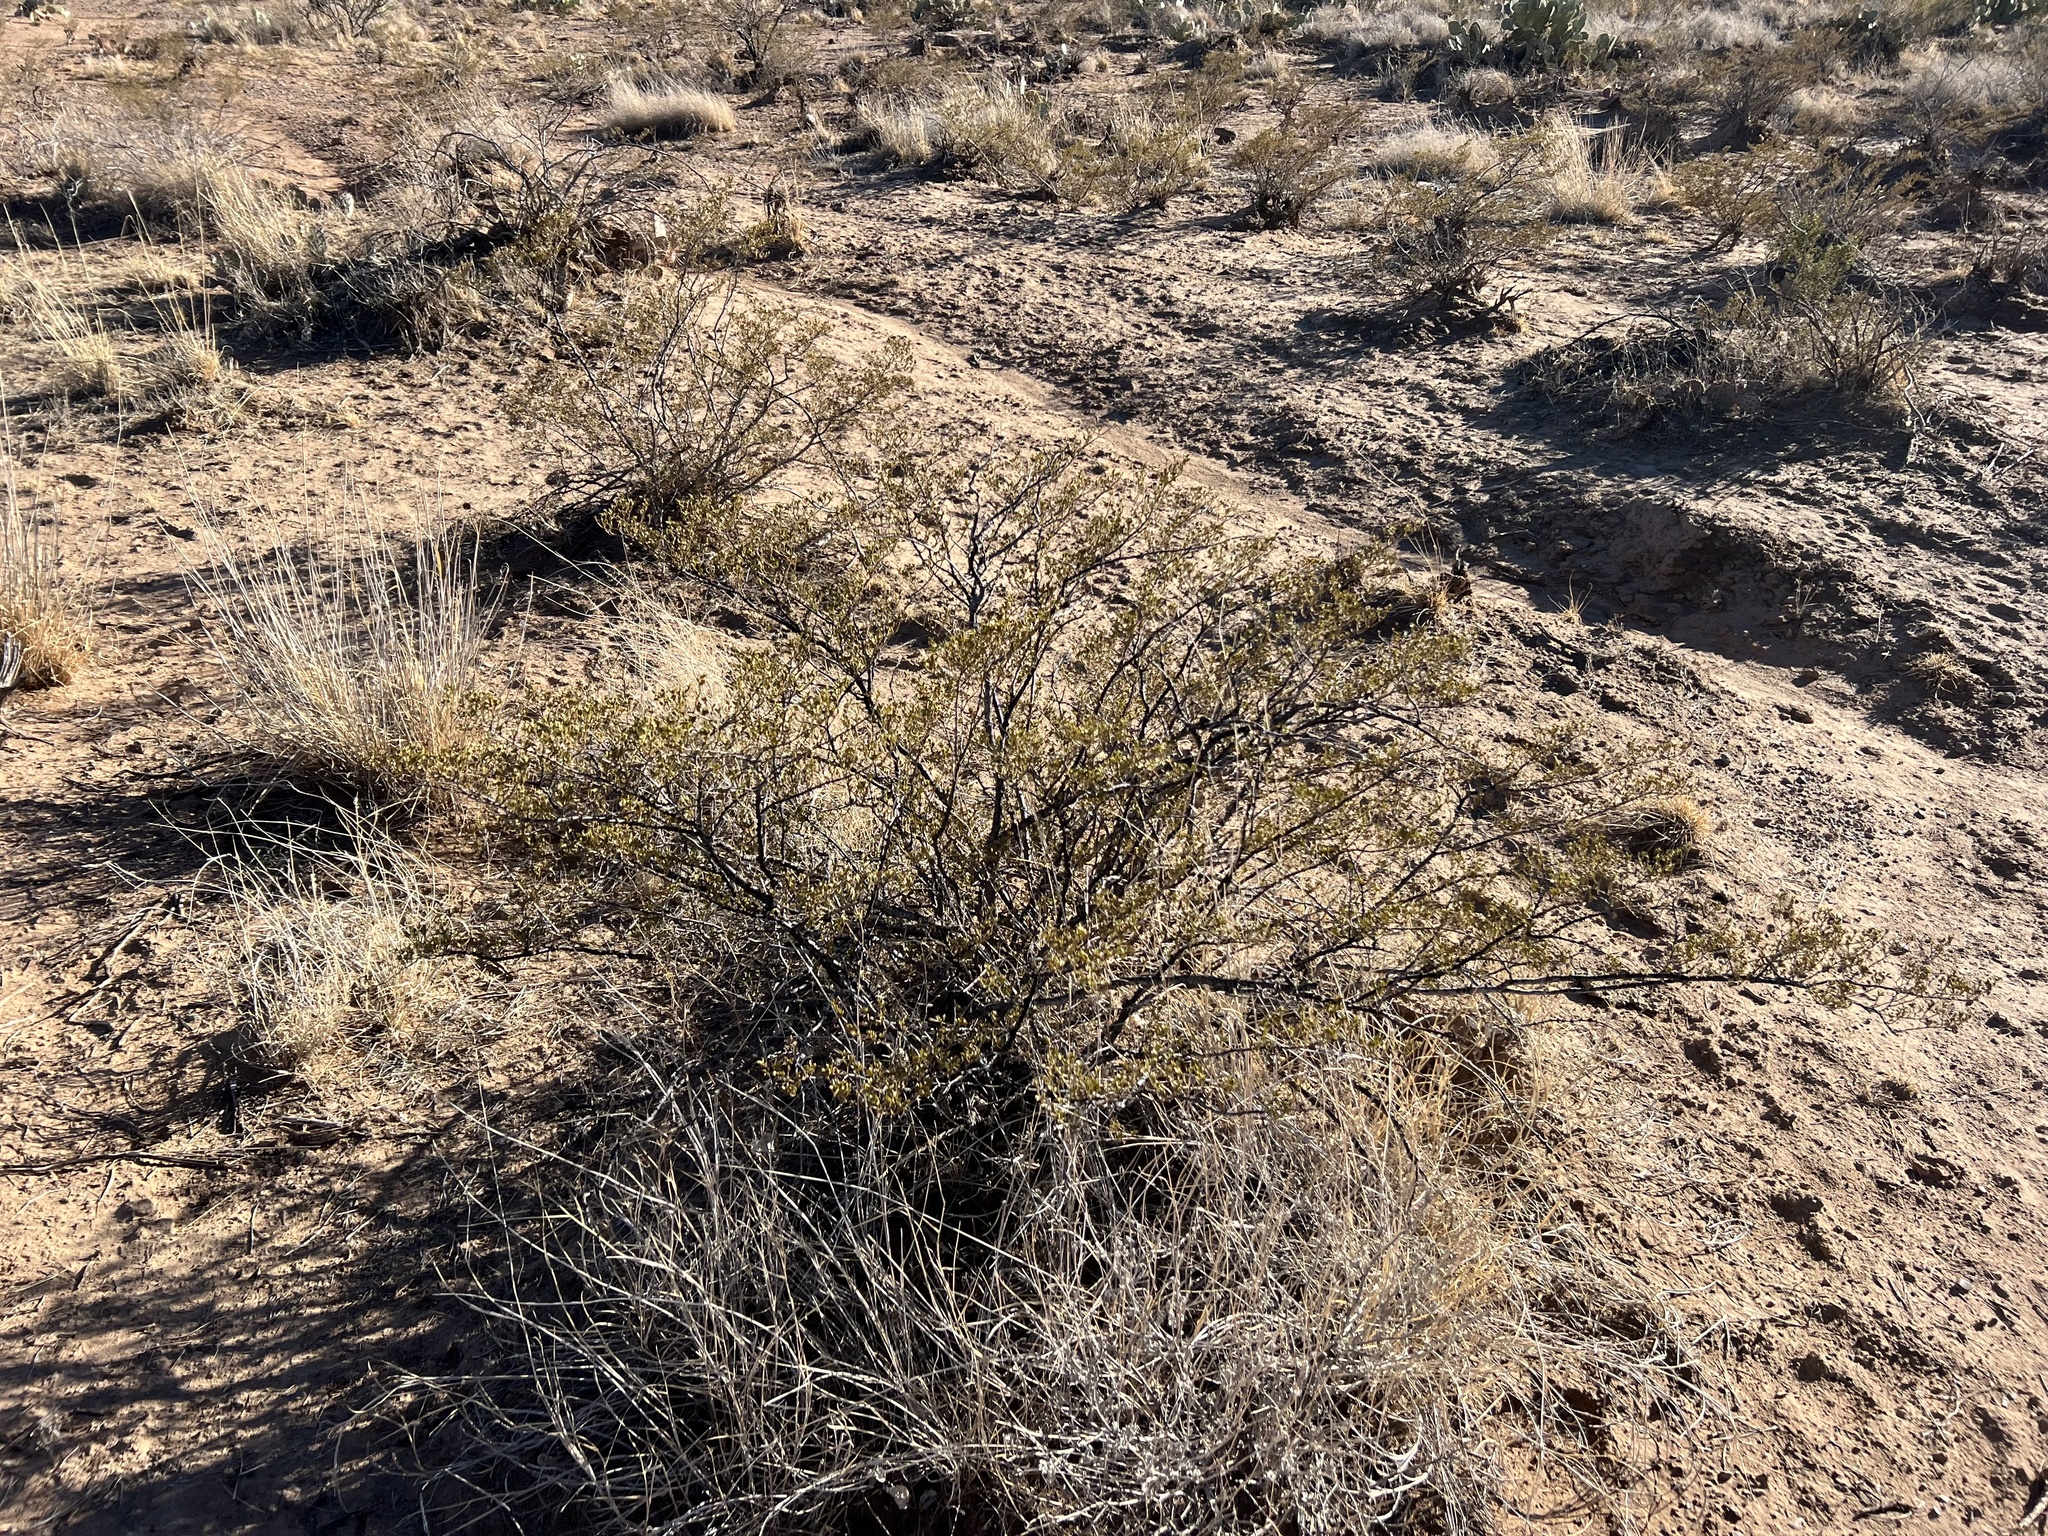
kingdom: Plantae
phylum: Tracheophyta
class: Magnoliopsida
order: Zygophyllales
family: Zygophyllaceae
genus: Larrea
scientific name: Larrea tridentata
